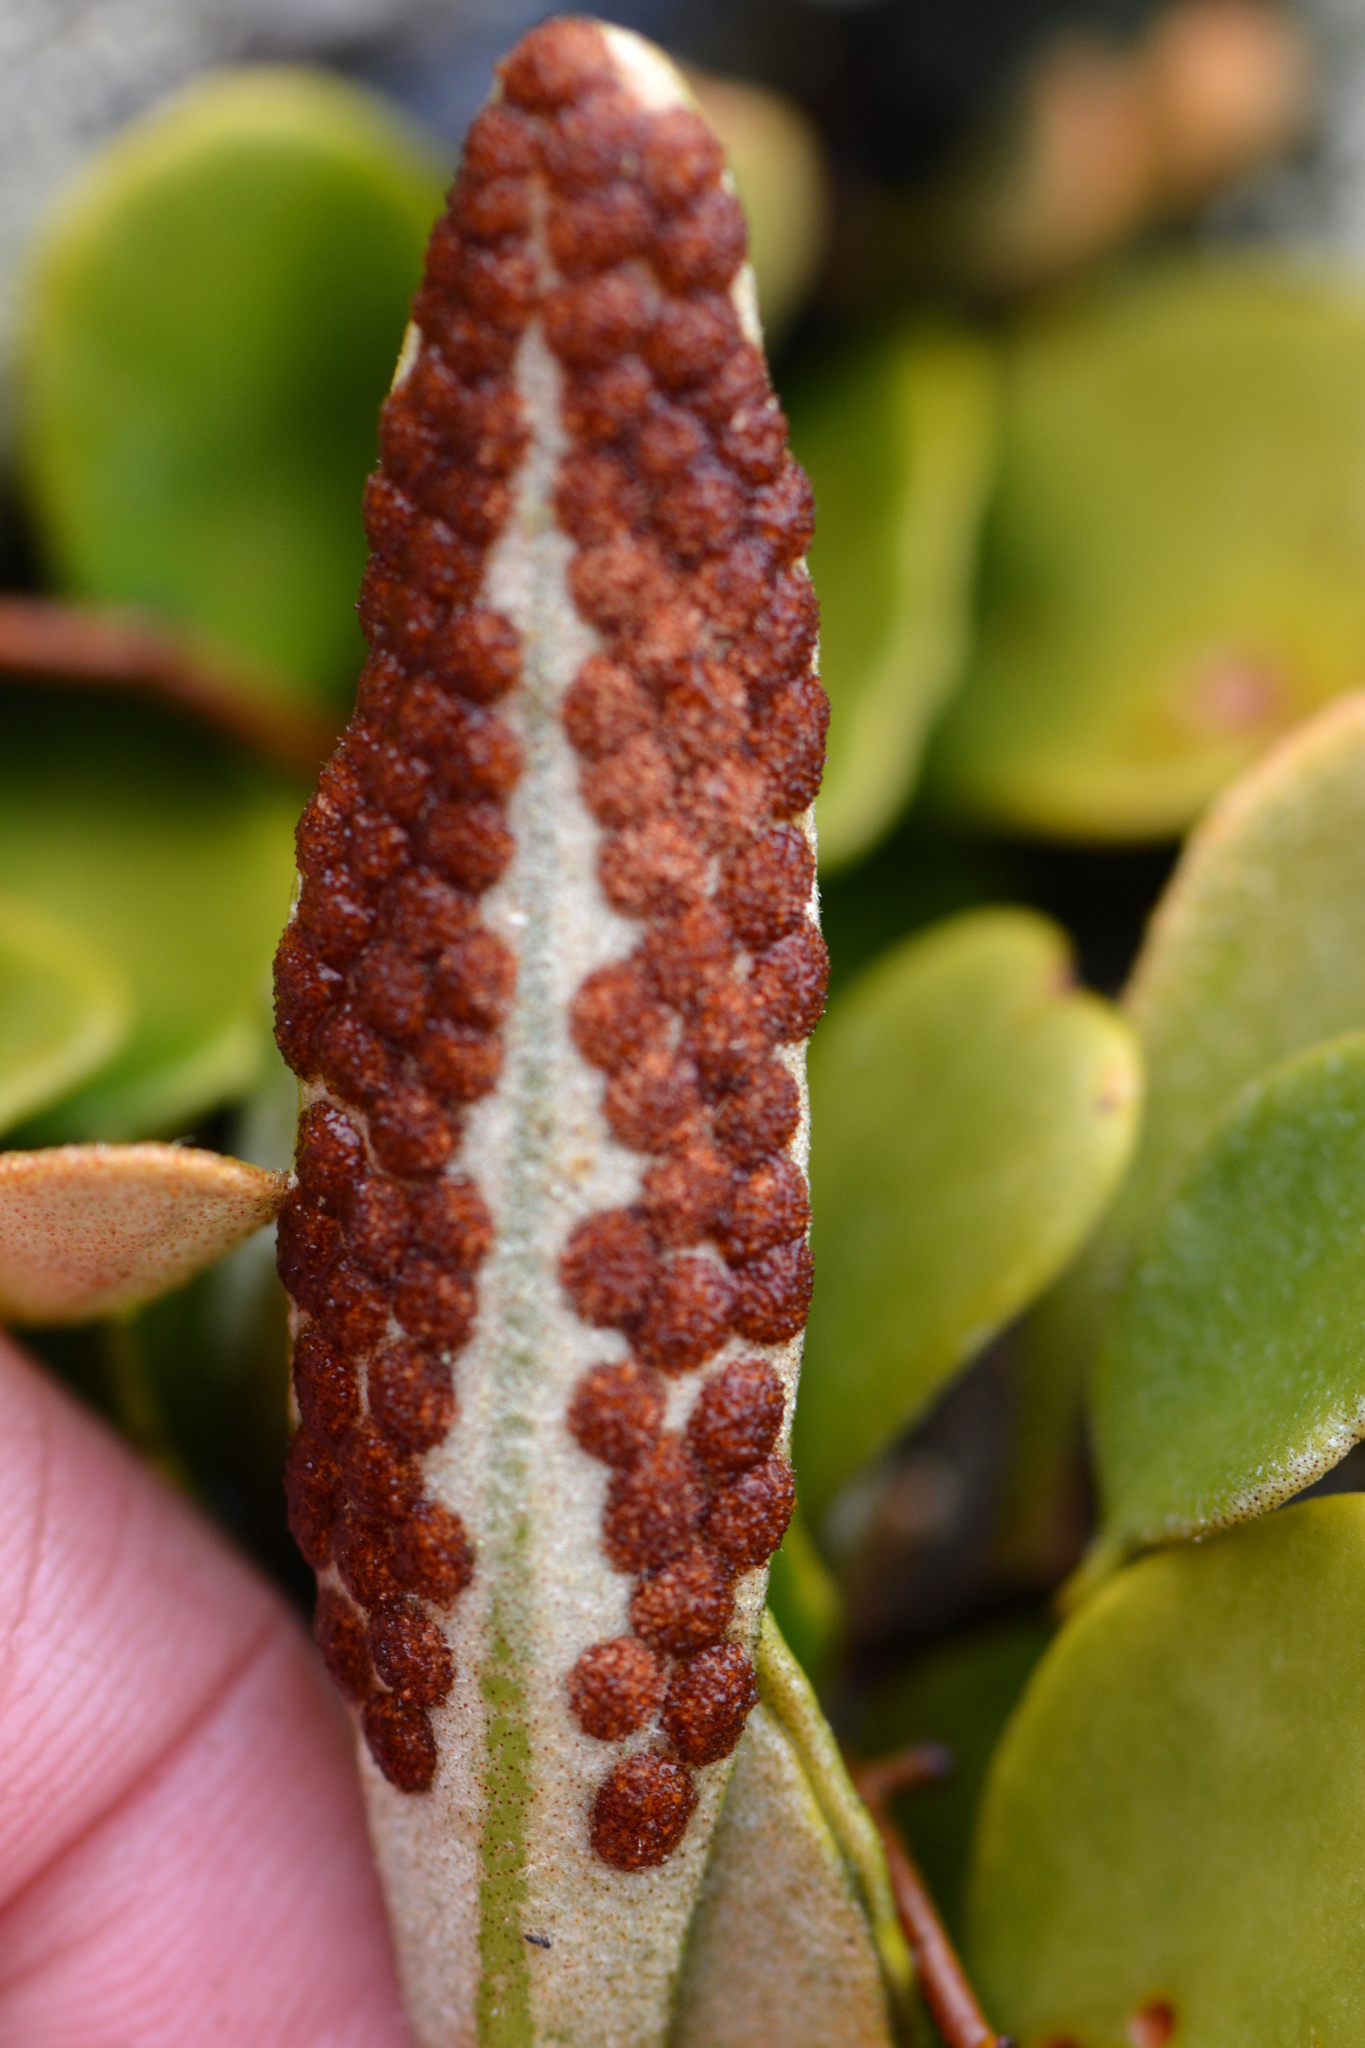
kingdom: Plantae
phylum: Tracheophyta
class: Polypodiopsida
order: Polypodiales
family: Polypodiaceae
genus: Pyrrosia
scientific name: Pyrrosia eleagnifolia
